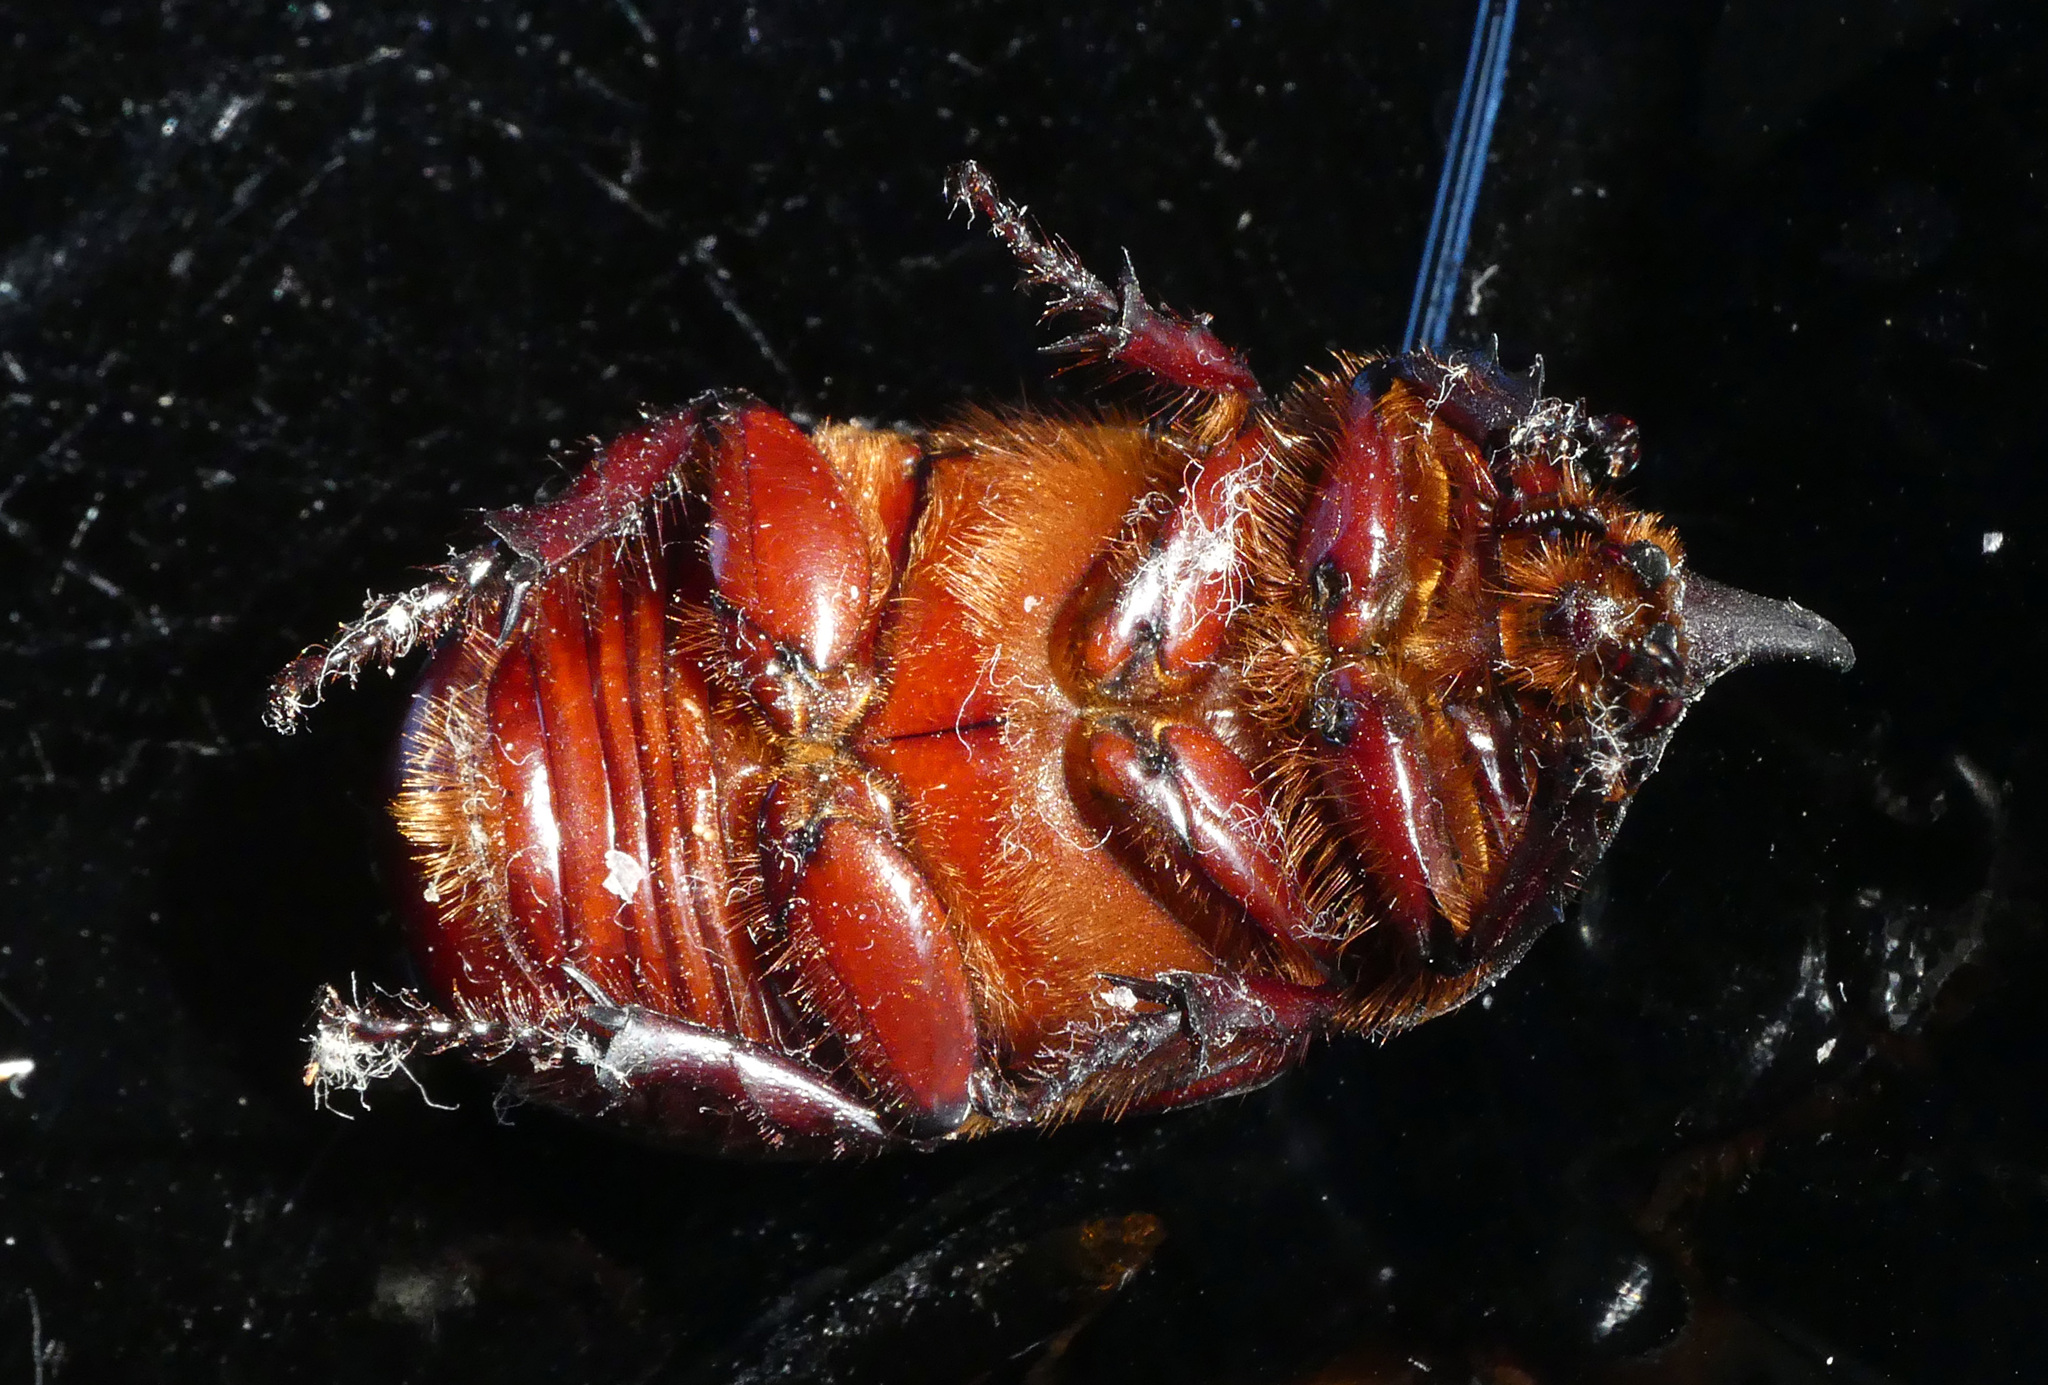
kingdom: Animalia
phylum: Arthropoda
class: Insecta
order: Coleoptera
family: Scarabaeidae
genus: Oryctes
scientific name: Oryctes nasicornis
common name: European rhinoceros beetle
